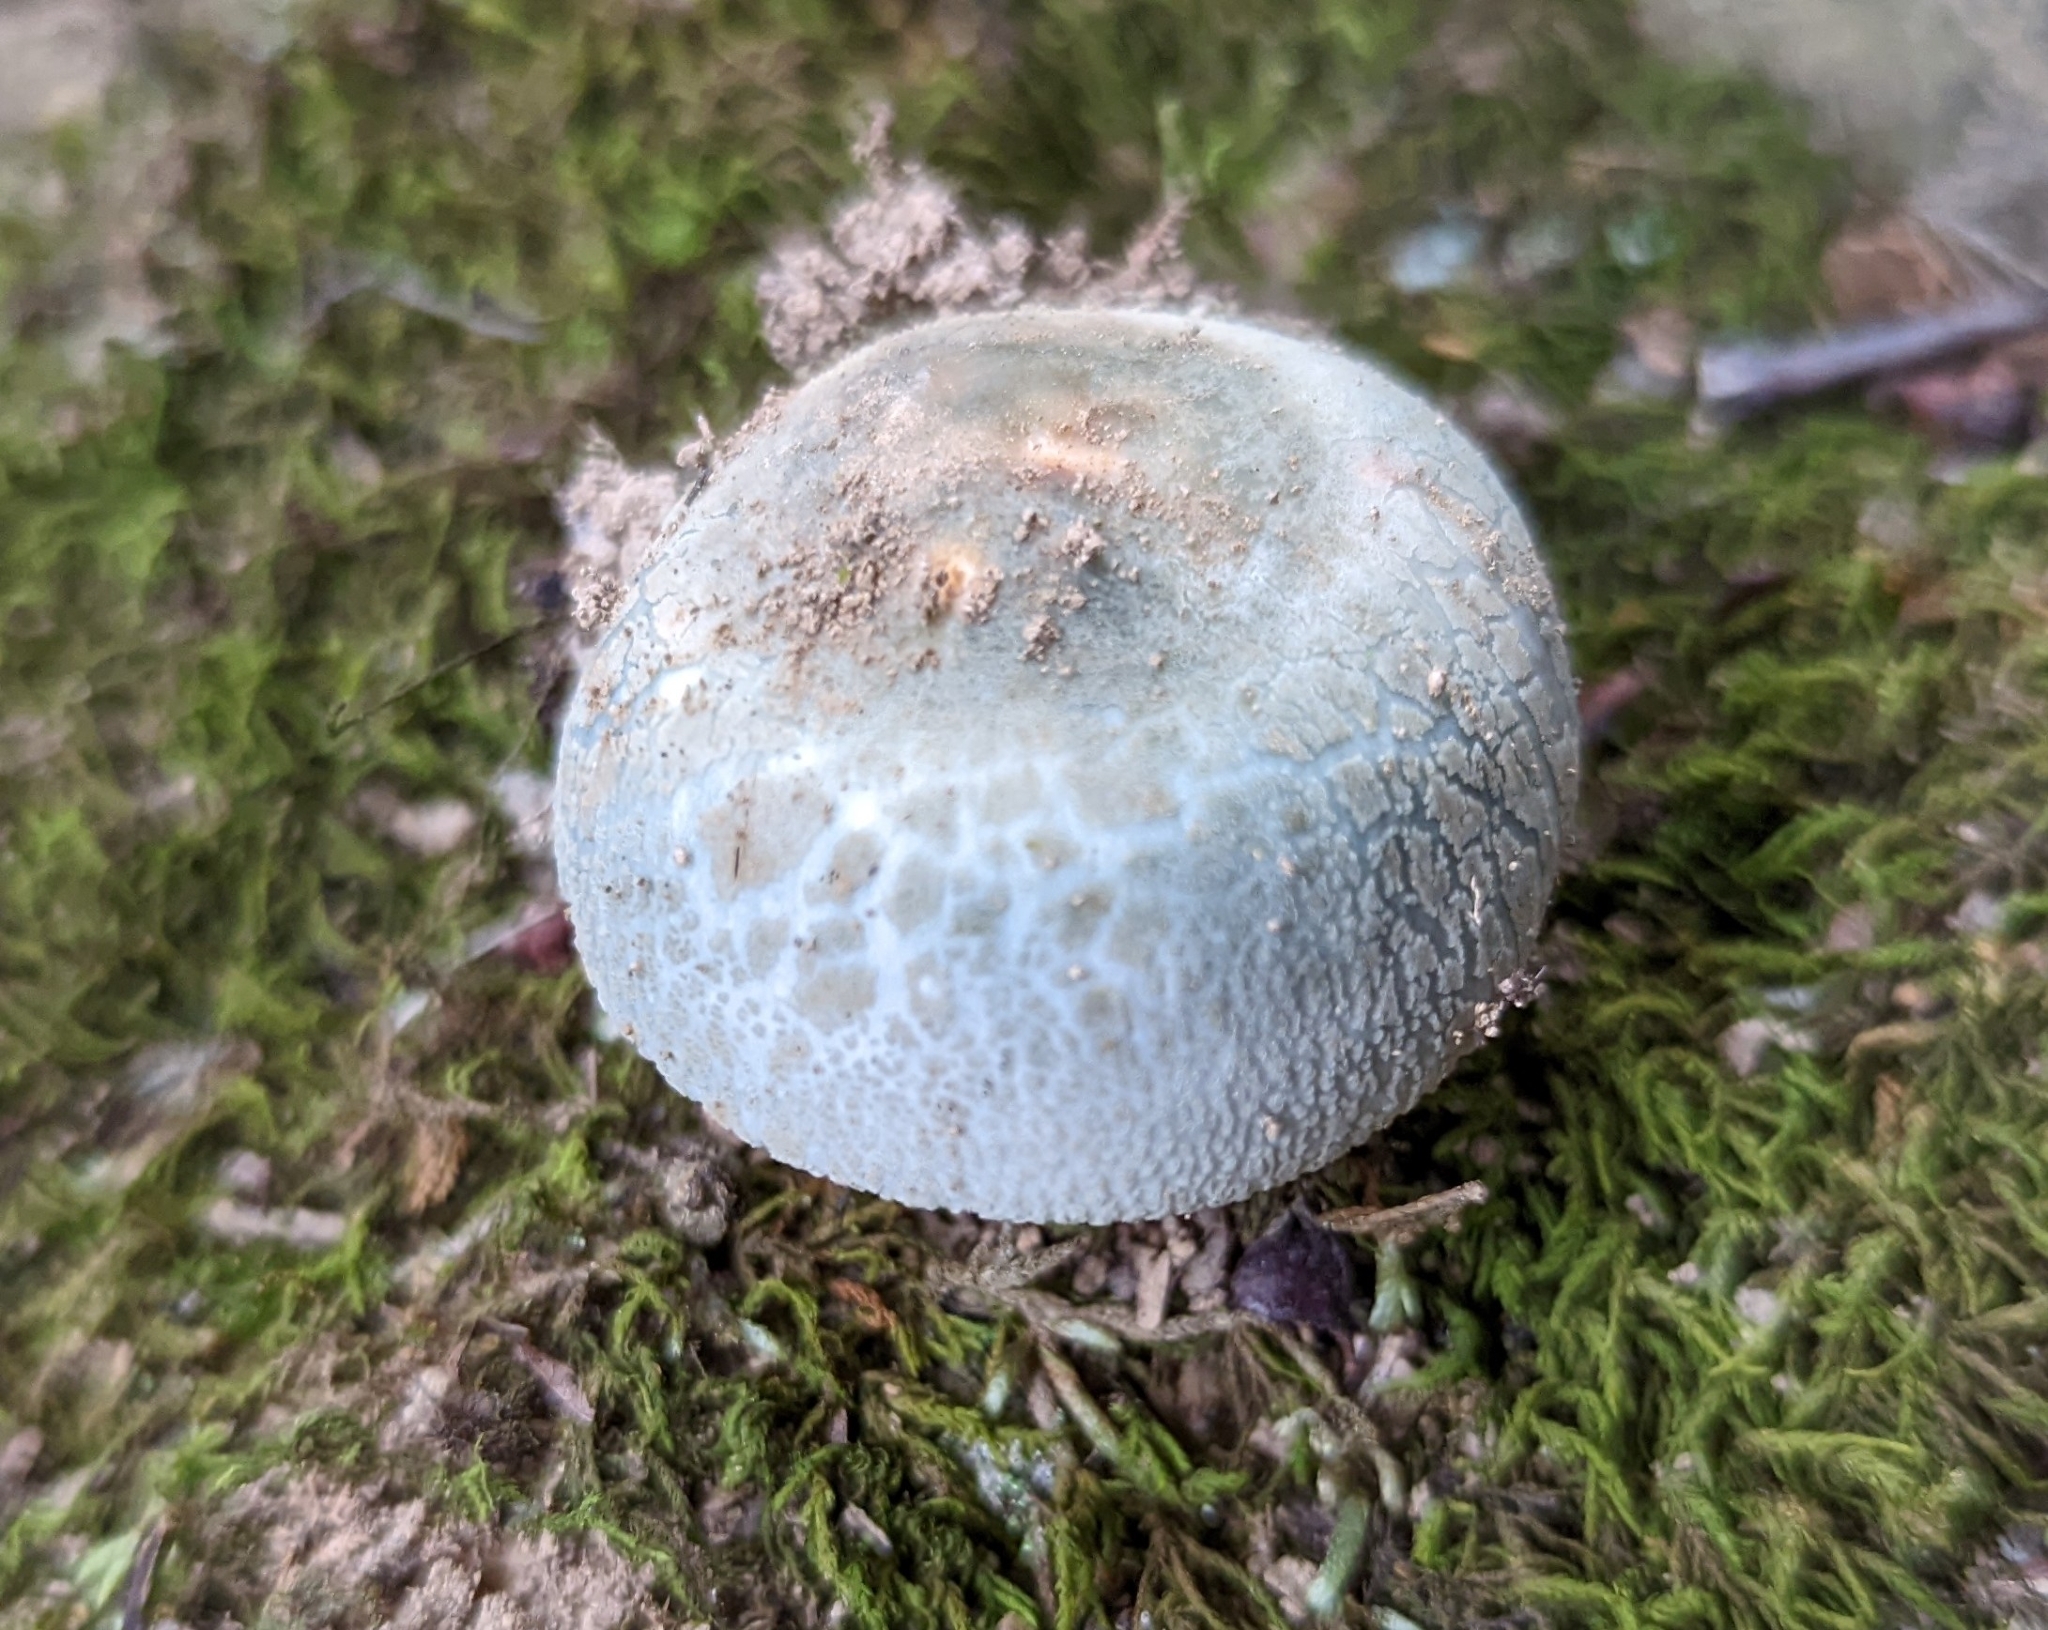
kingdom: Fungi
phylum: Basidiomycota
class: Agaricomycetes
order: Russulales
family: Russulaceae
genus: Russula
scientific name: Russula parvovirescens
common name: Blue-green cracking russula
